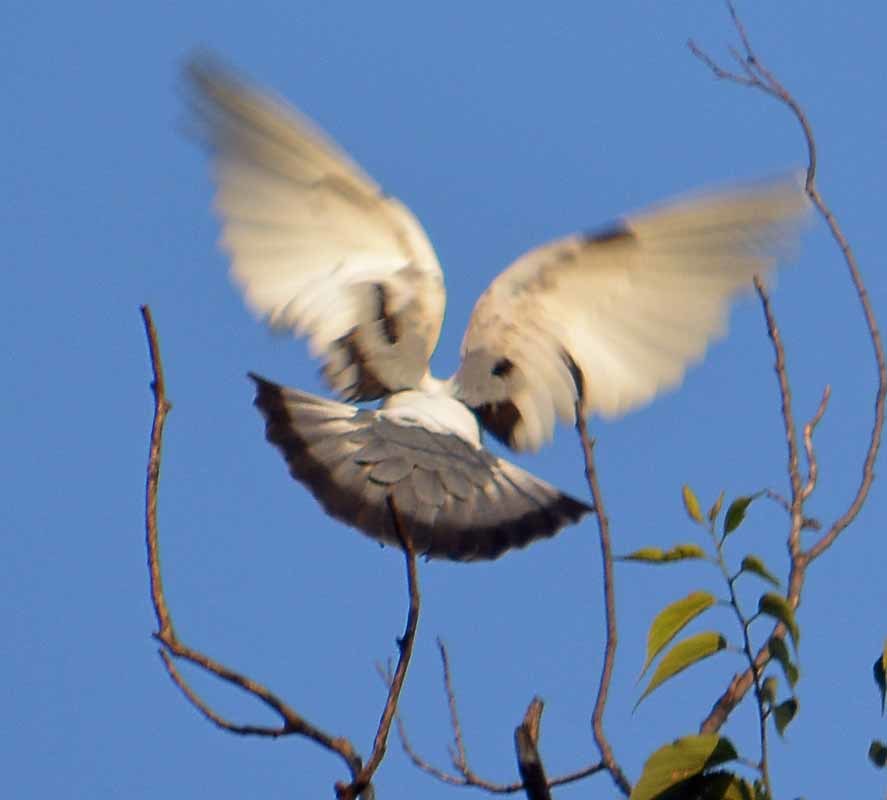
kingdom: Animalia
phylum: Chordata
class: Aves
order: Columbiformes
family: Columbidae
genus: Columba
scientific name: Columba livia
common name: Rock pigeon
